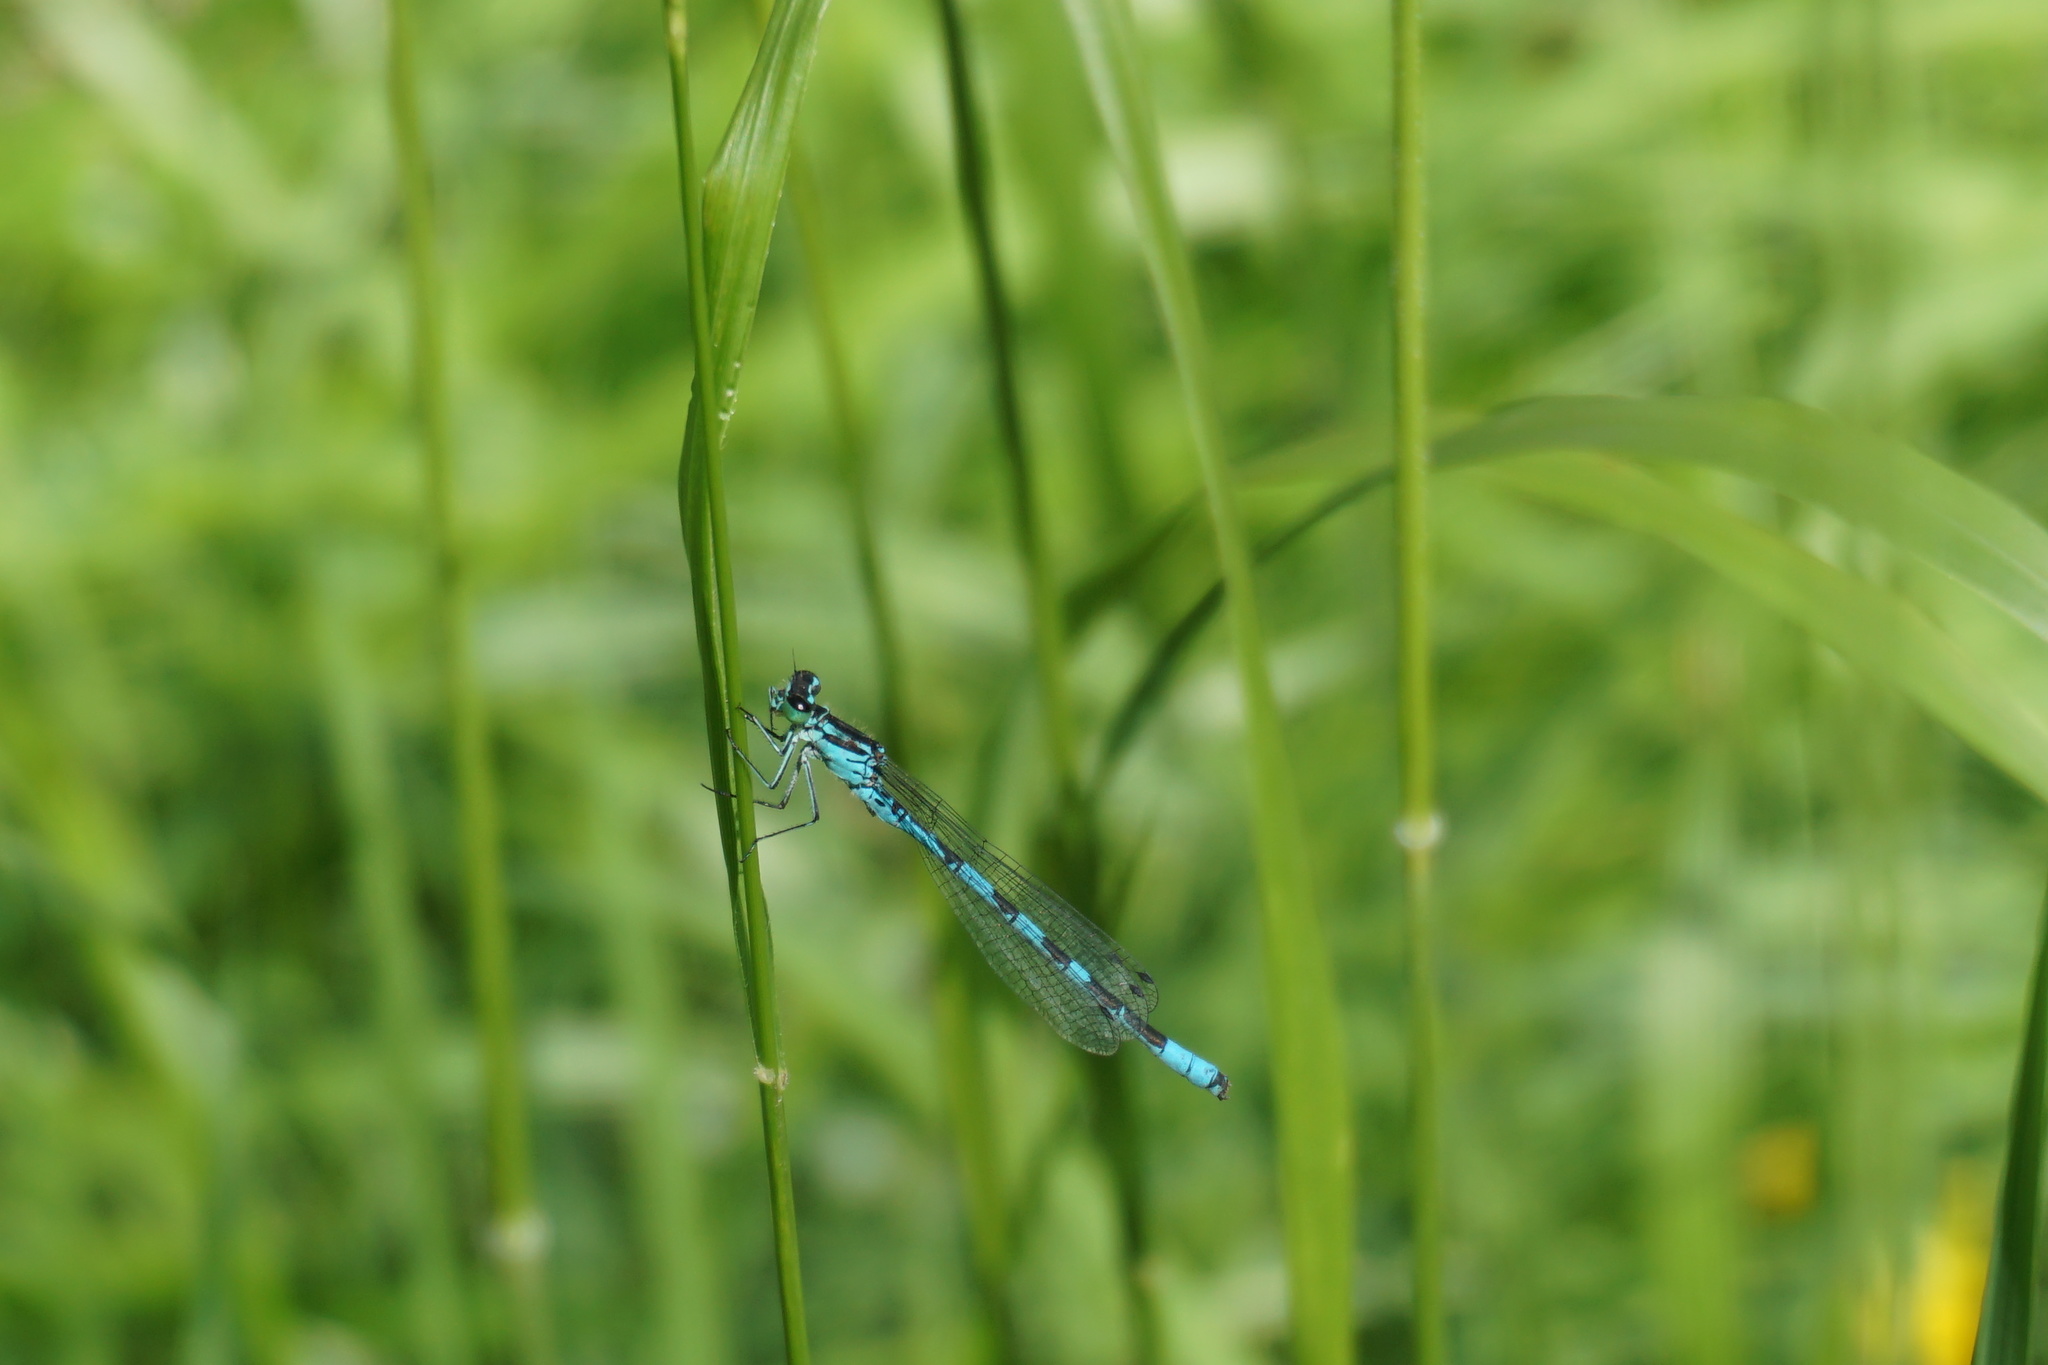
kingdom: Animalia
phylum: Arthropoda
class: Insecta
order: Odonata
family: Coenagrionidae
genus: Coenagrion
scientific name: Coenagrion hastulatum
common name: Spearhead bluet
